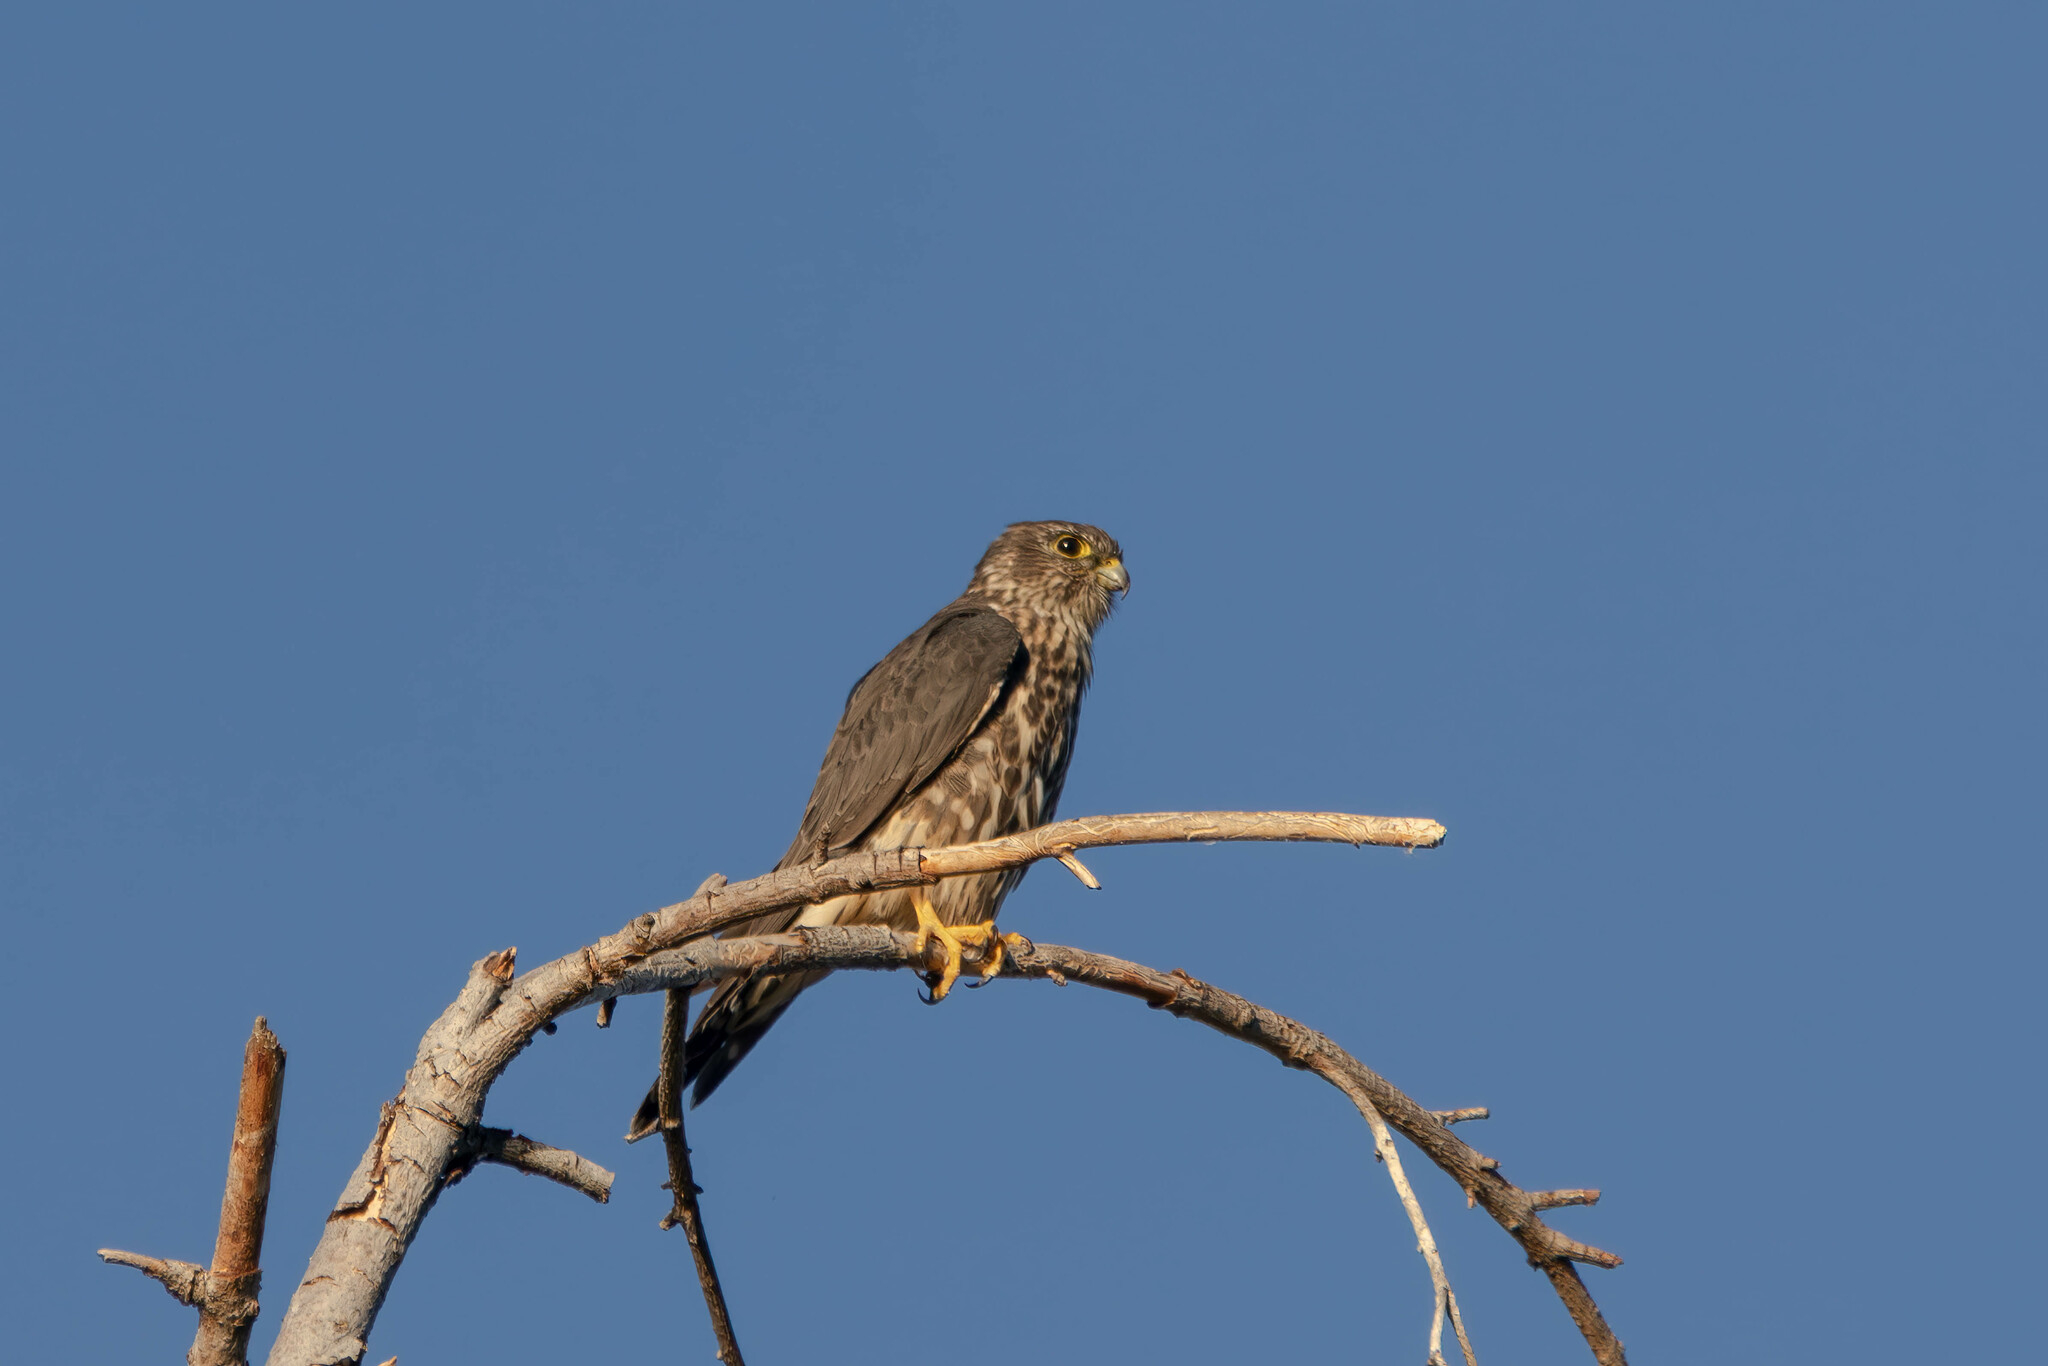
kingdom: Animalia
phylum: Chordata
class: Aves
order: Falconiformes
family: Falconidae
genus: Falco
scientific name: Falco columbarius
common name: Merlin
